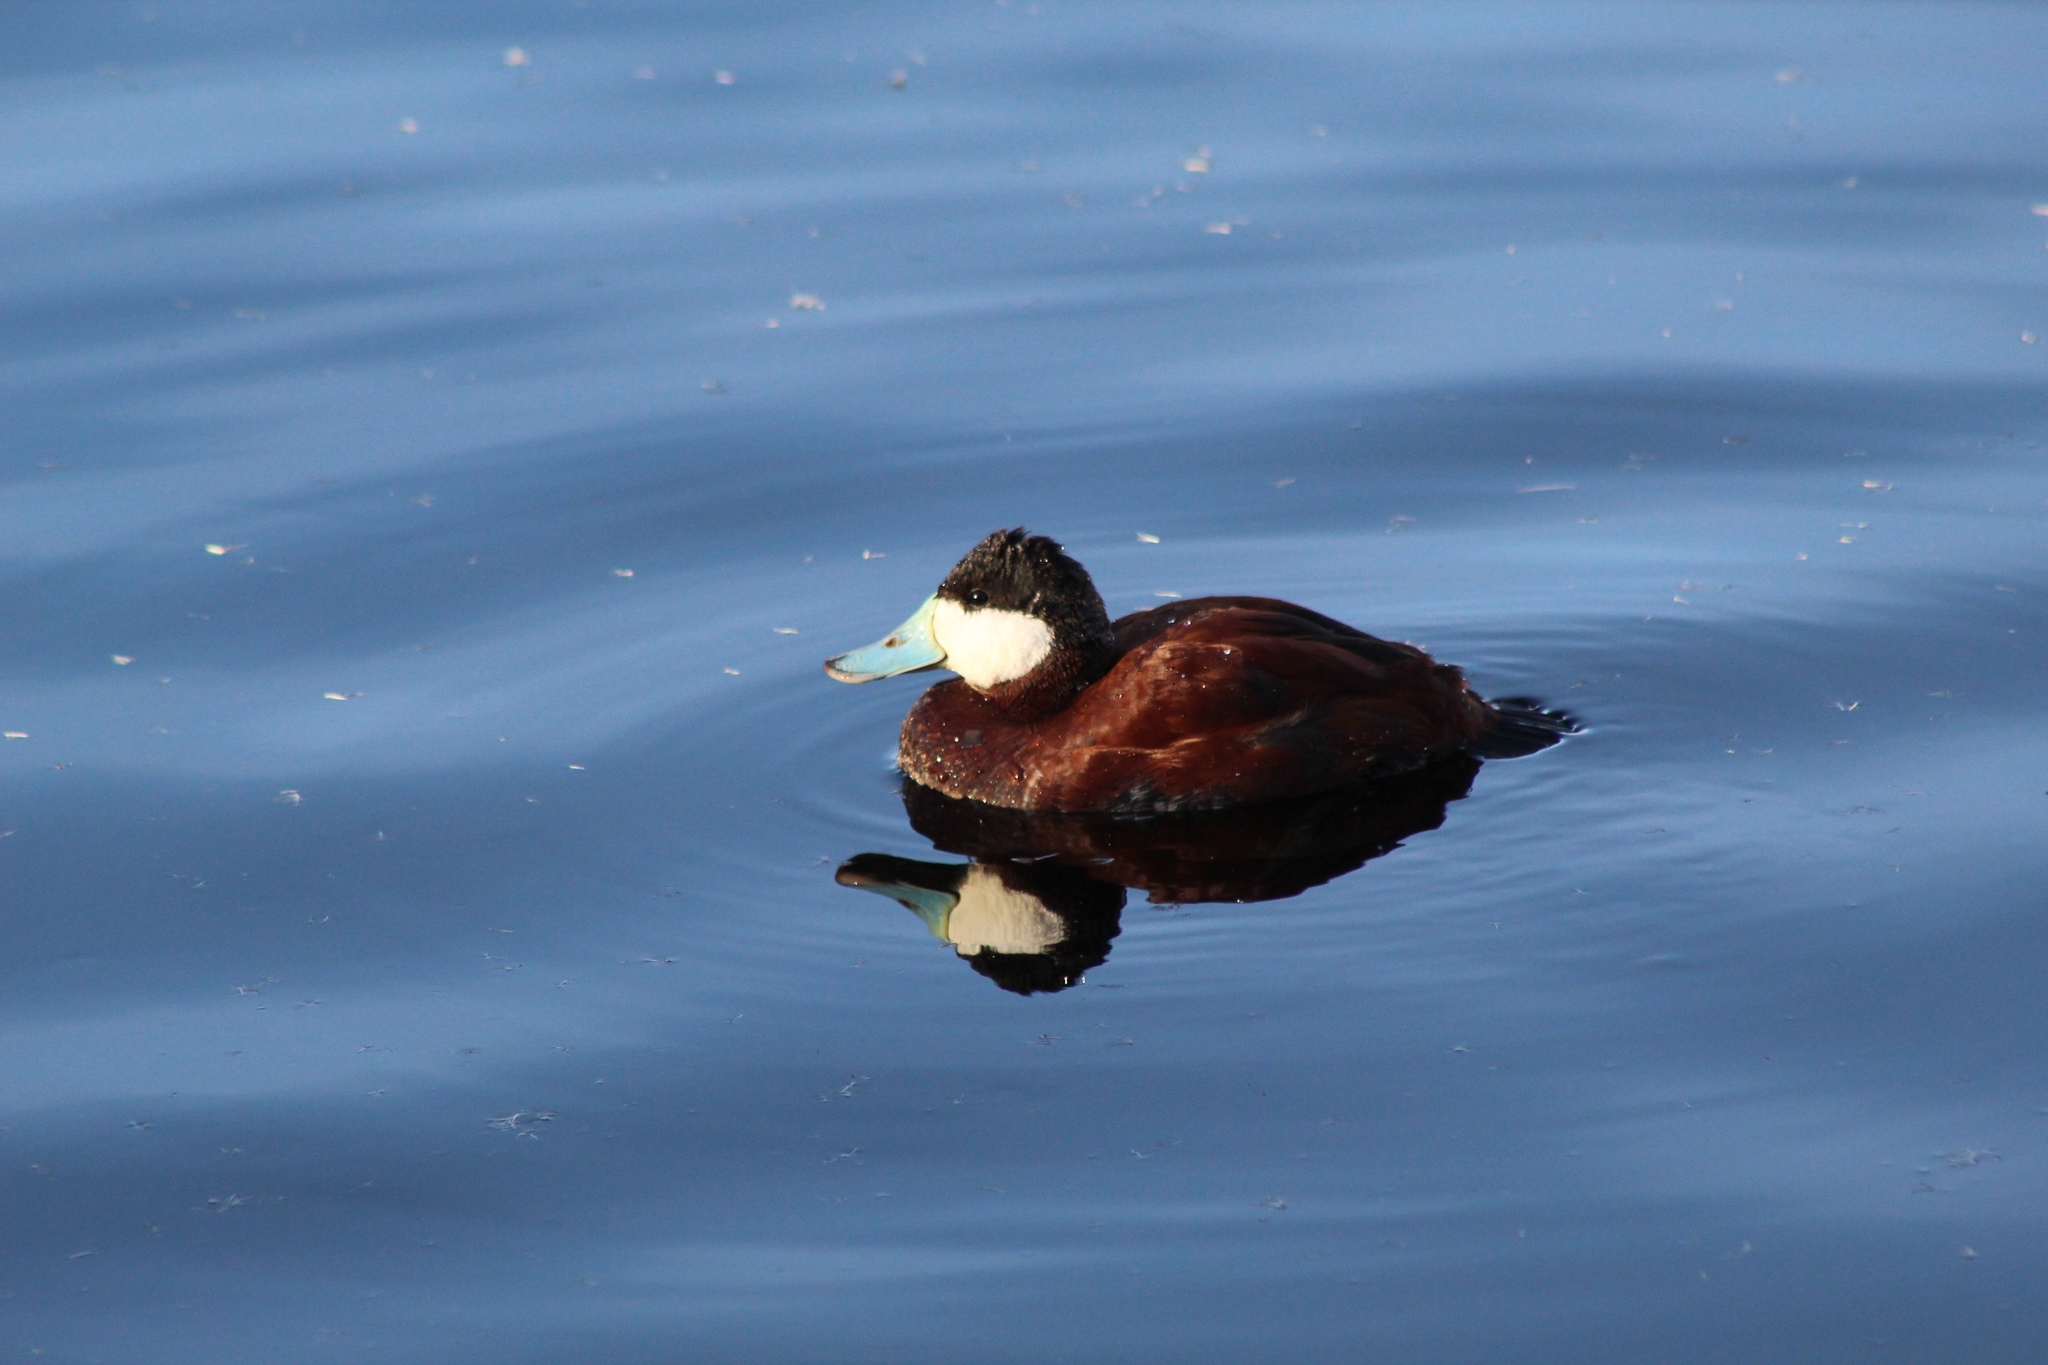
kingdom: Animalia
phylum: Chordata
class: Aves
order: Anseriformes
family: Anatidae
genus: Oxyura
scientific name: Oxyura jamaicensis
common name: Ruddy duck
